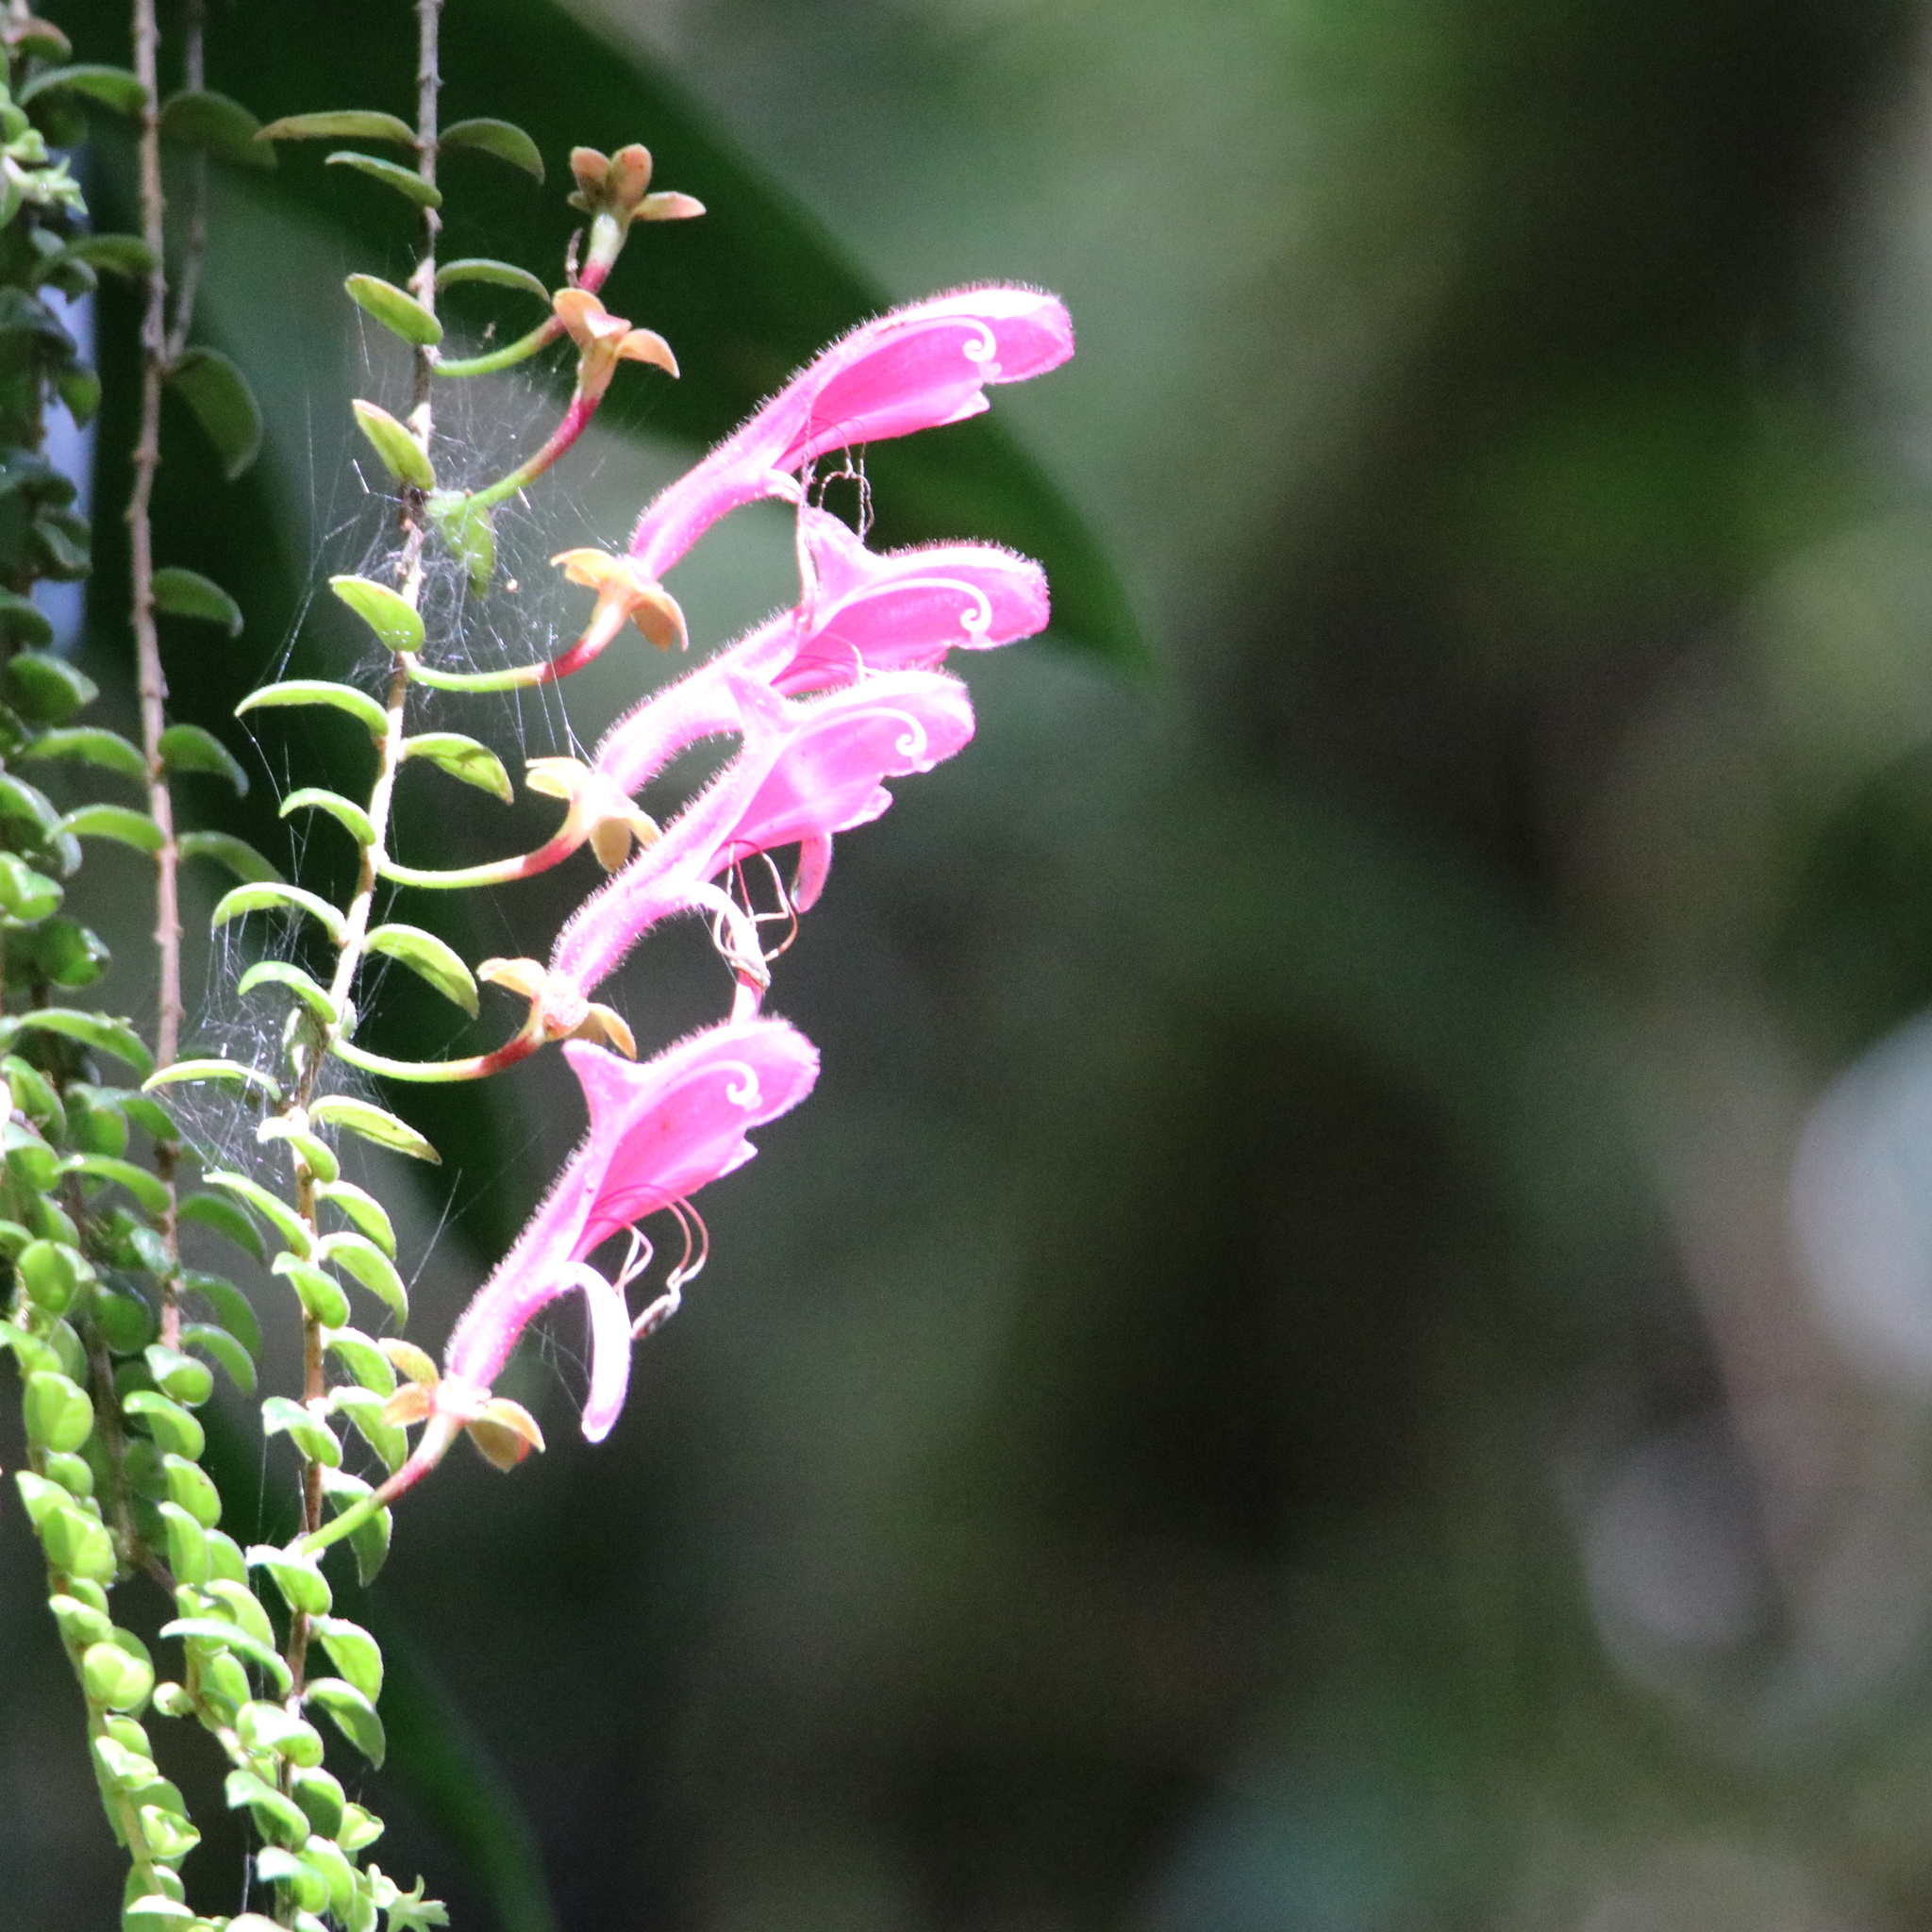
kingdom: Plantae
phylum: Tracheophyta
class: Magnoliopsida
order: Lamiales
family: Gesneriaceae
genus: Columnea
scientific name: Columnea chiricana
